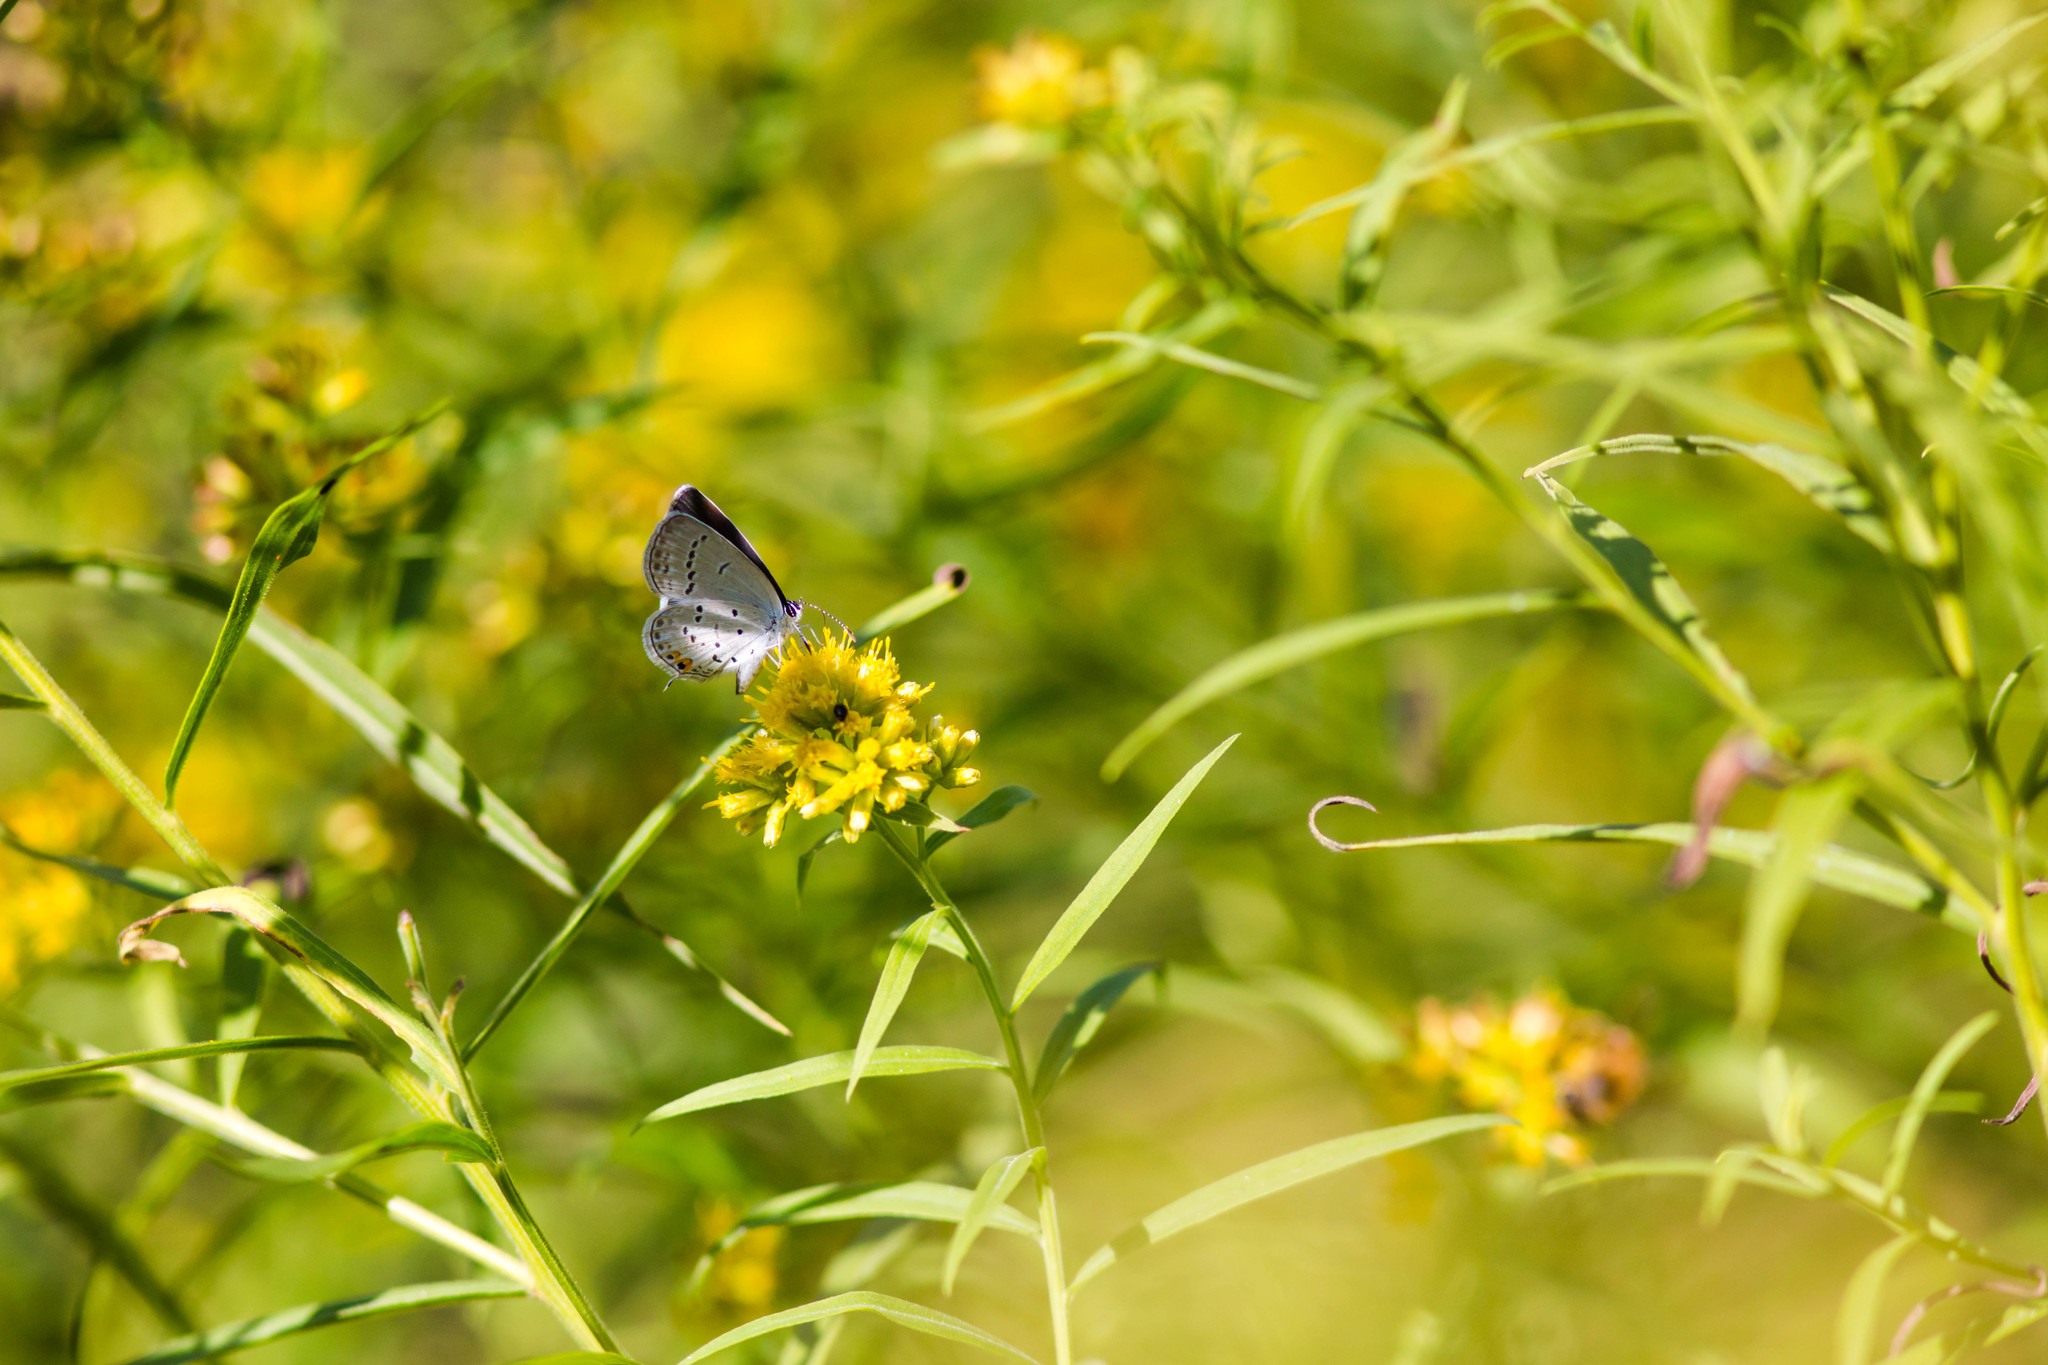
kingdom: Animalia
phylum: Arthropoda
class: Insecta
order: Lepidoptera
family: Lycaenidae
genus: Elkalyce
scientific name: Elkalyce comyntas
